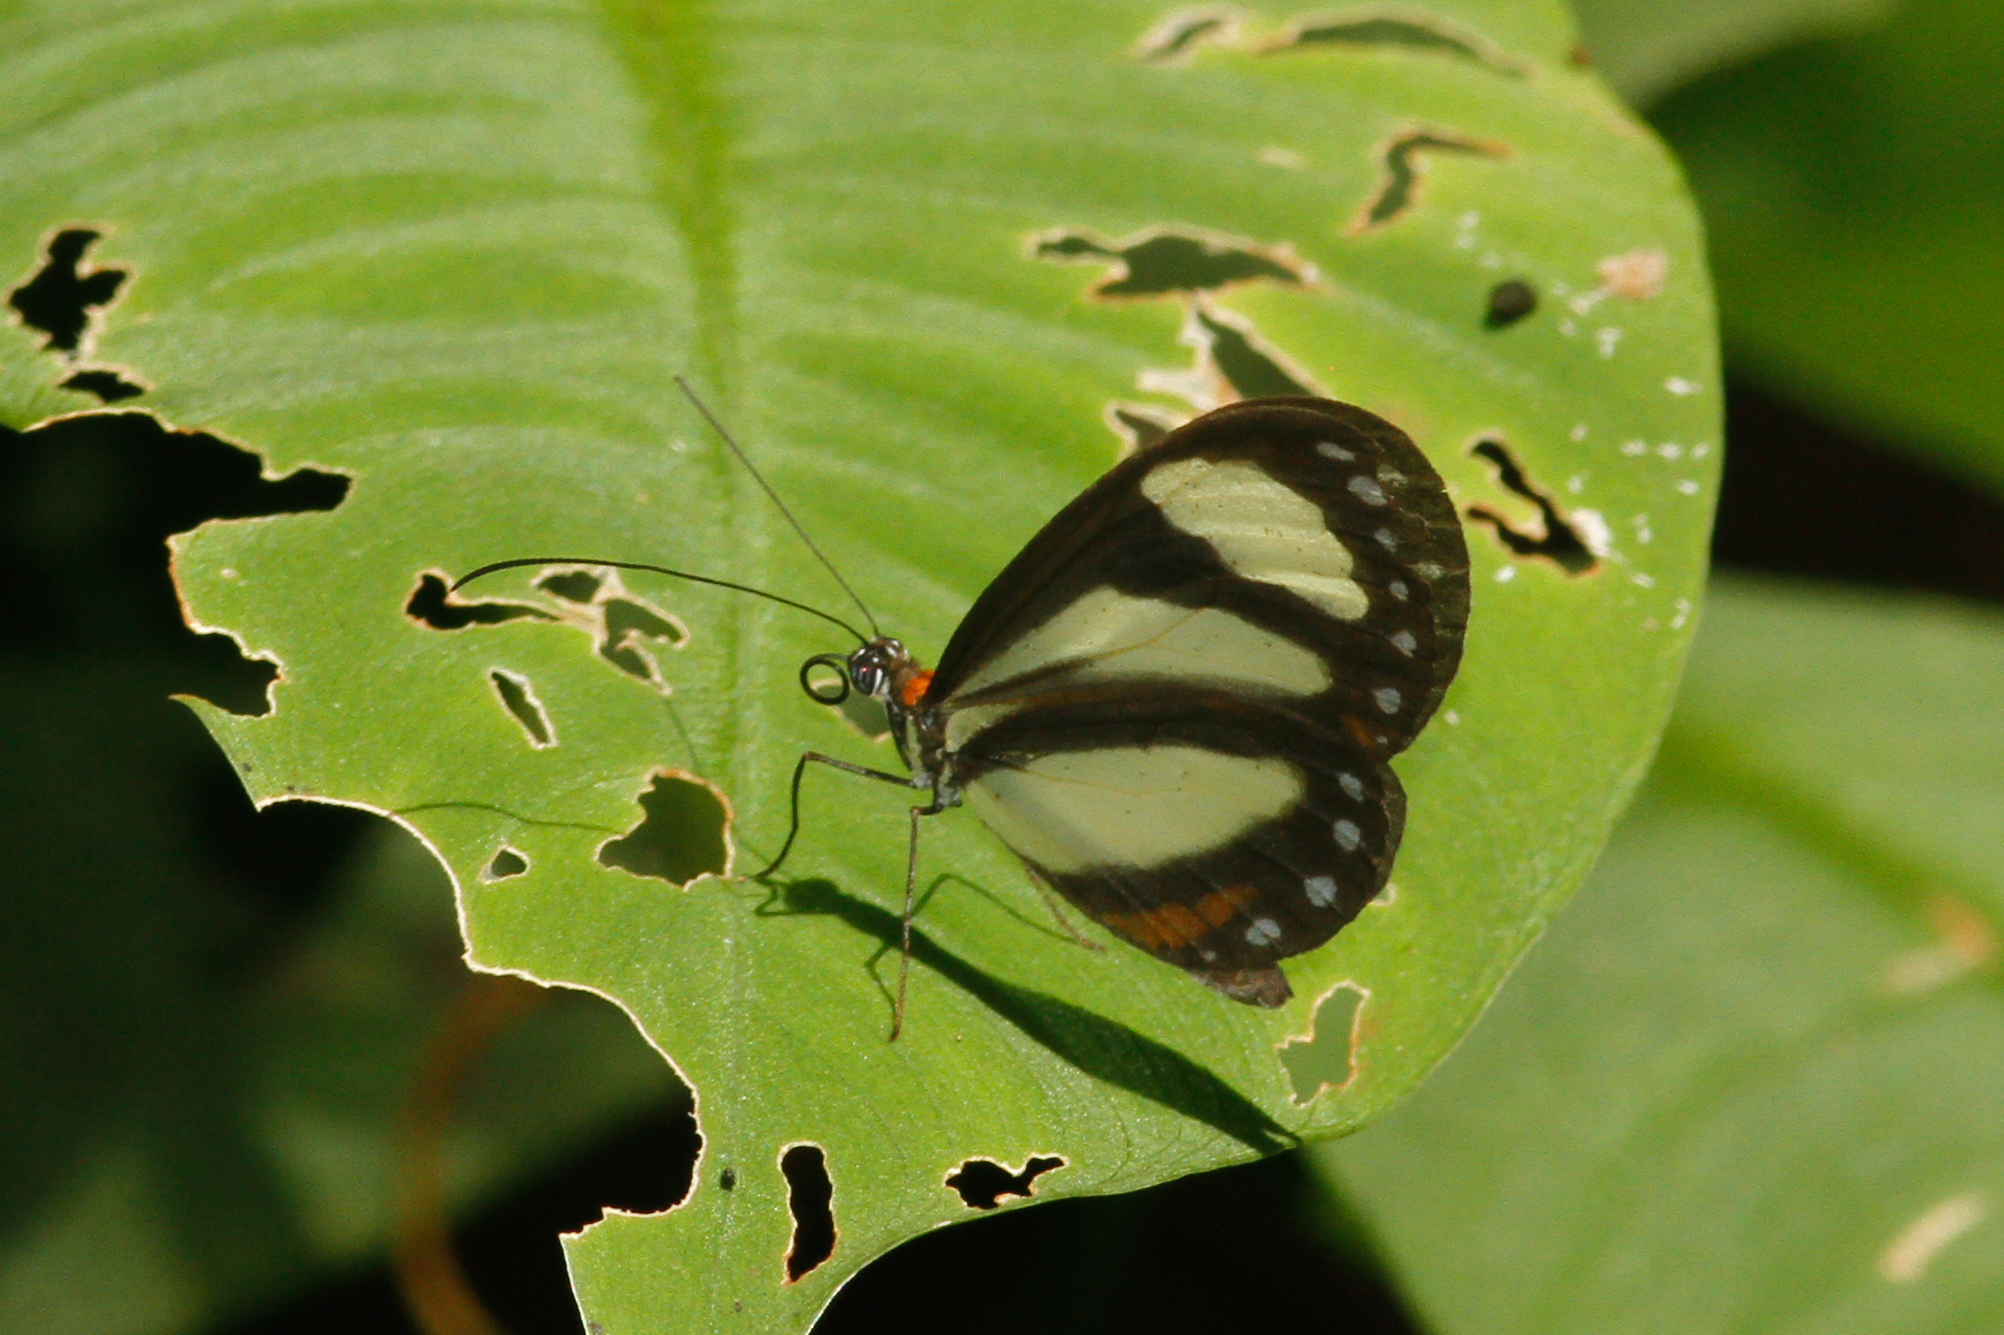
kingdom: Animalia
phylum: Arthropoda
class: Insecta
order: Lepidoptera
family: Nymphalidae
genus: Aeria
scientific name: Aeria eurimedia
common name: Banded tigerwing
